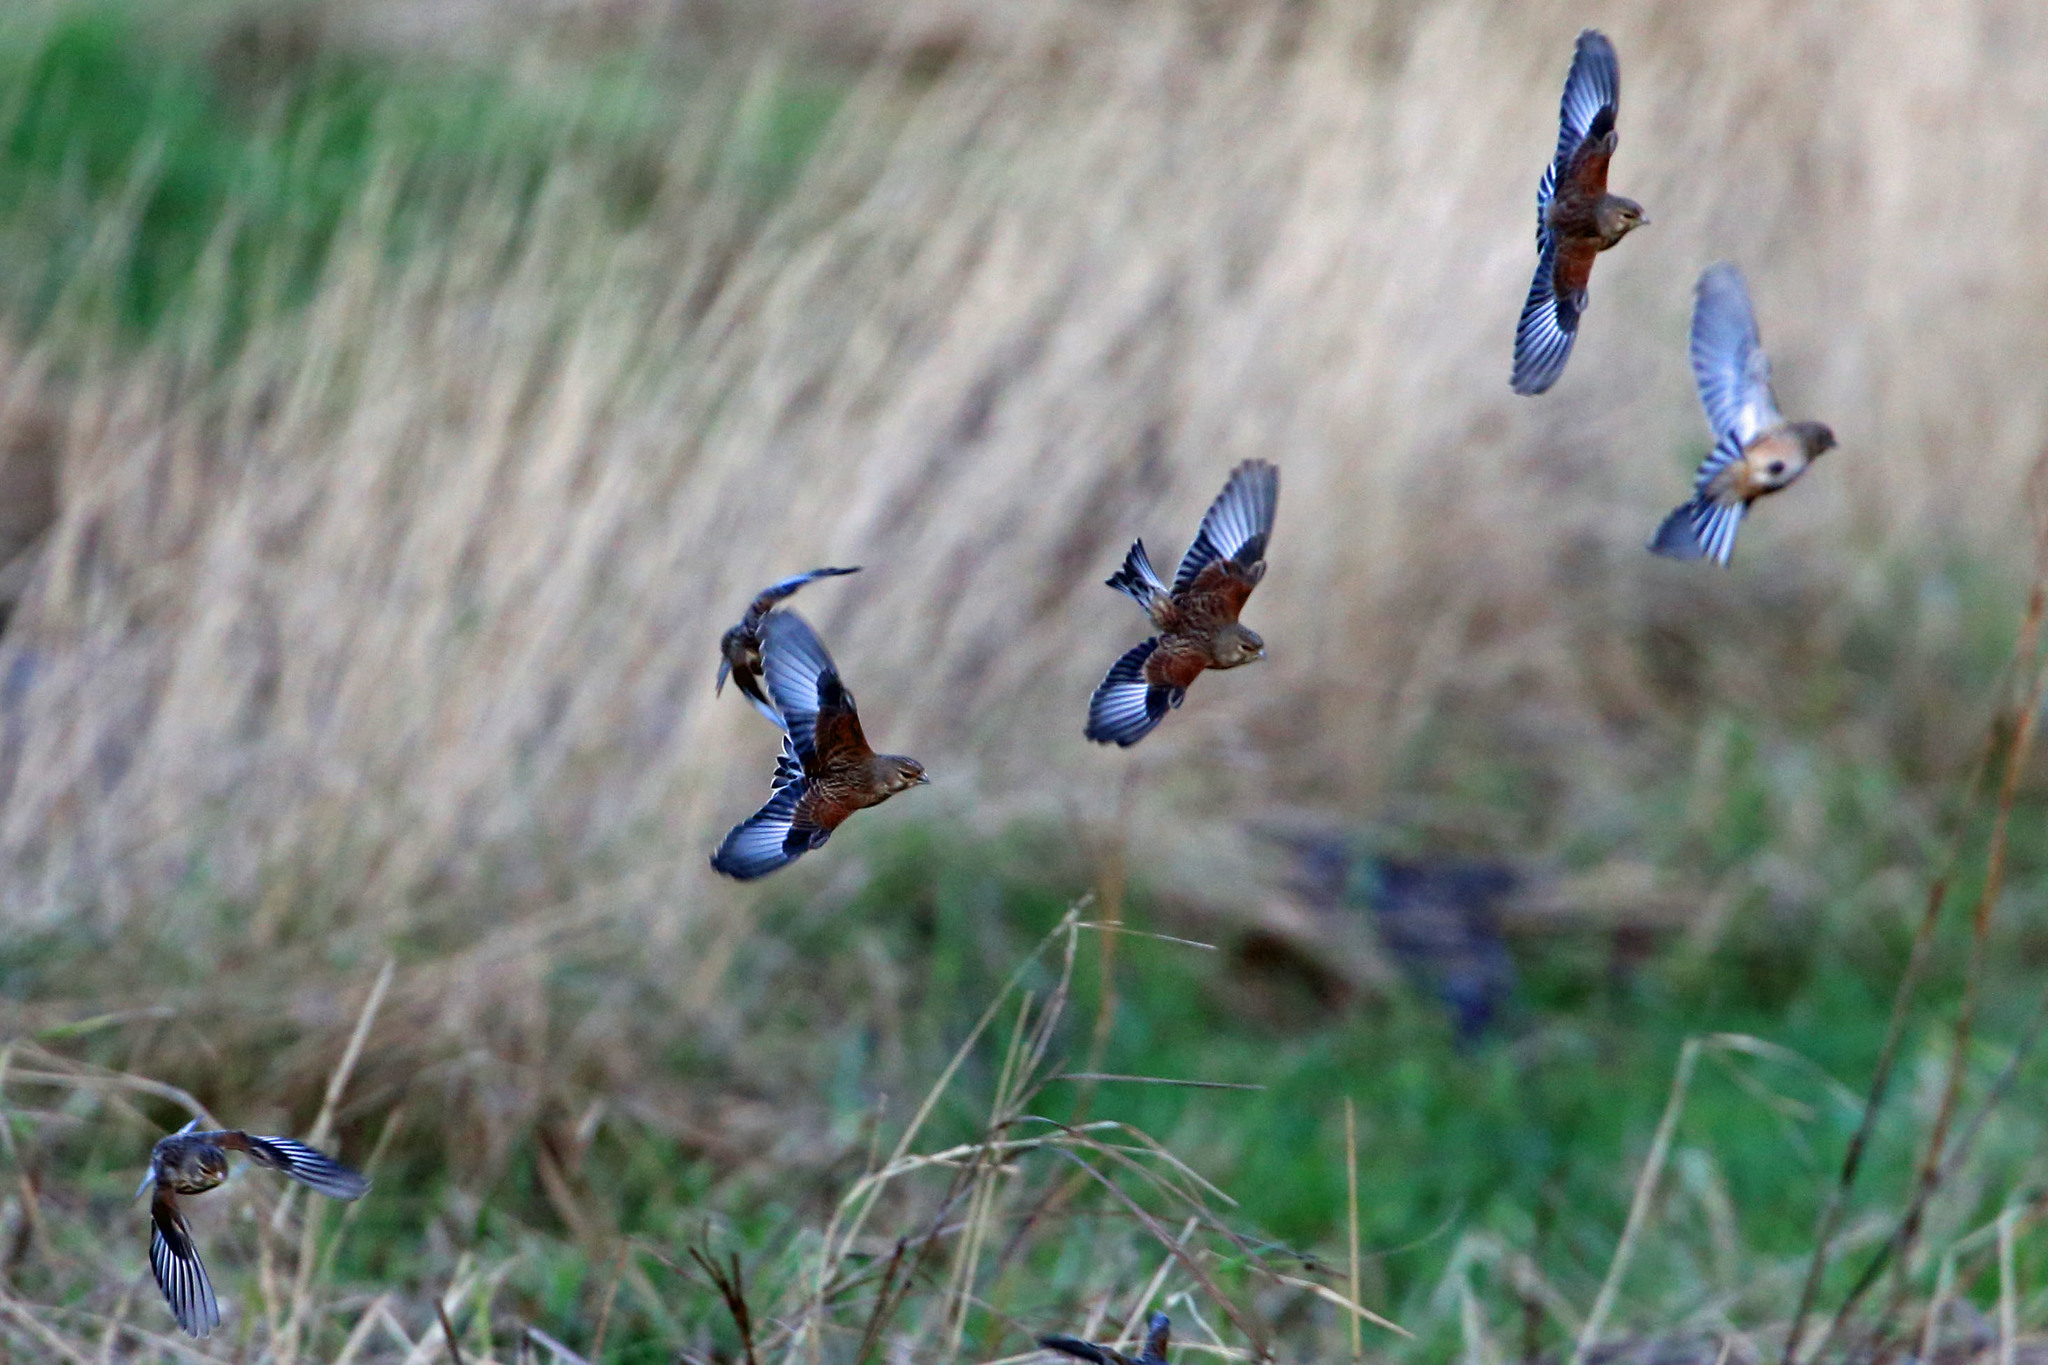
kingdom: Animalia
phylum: Chordata
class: Aves
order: Passeriformes
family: Fringillidae
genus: Linaria
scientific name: Linaria cannabina
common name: Common linnet
